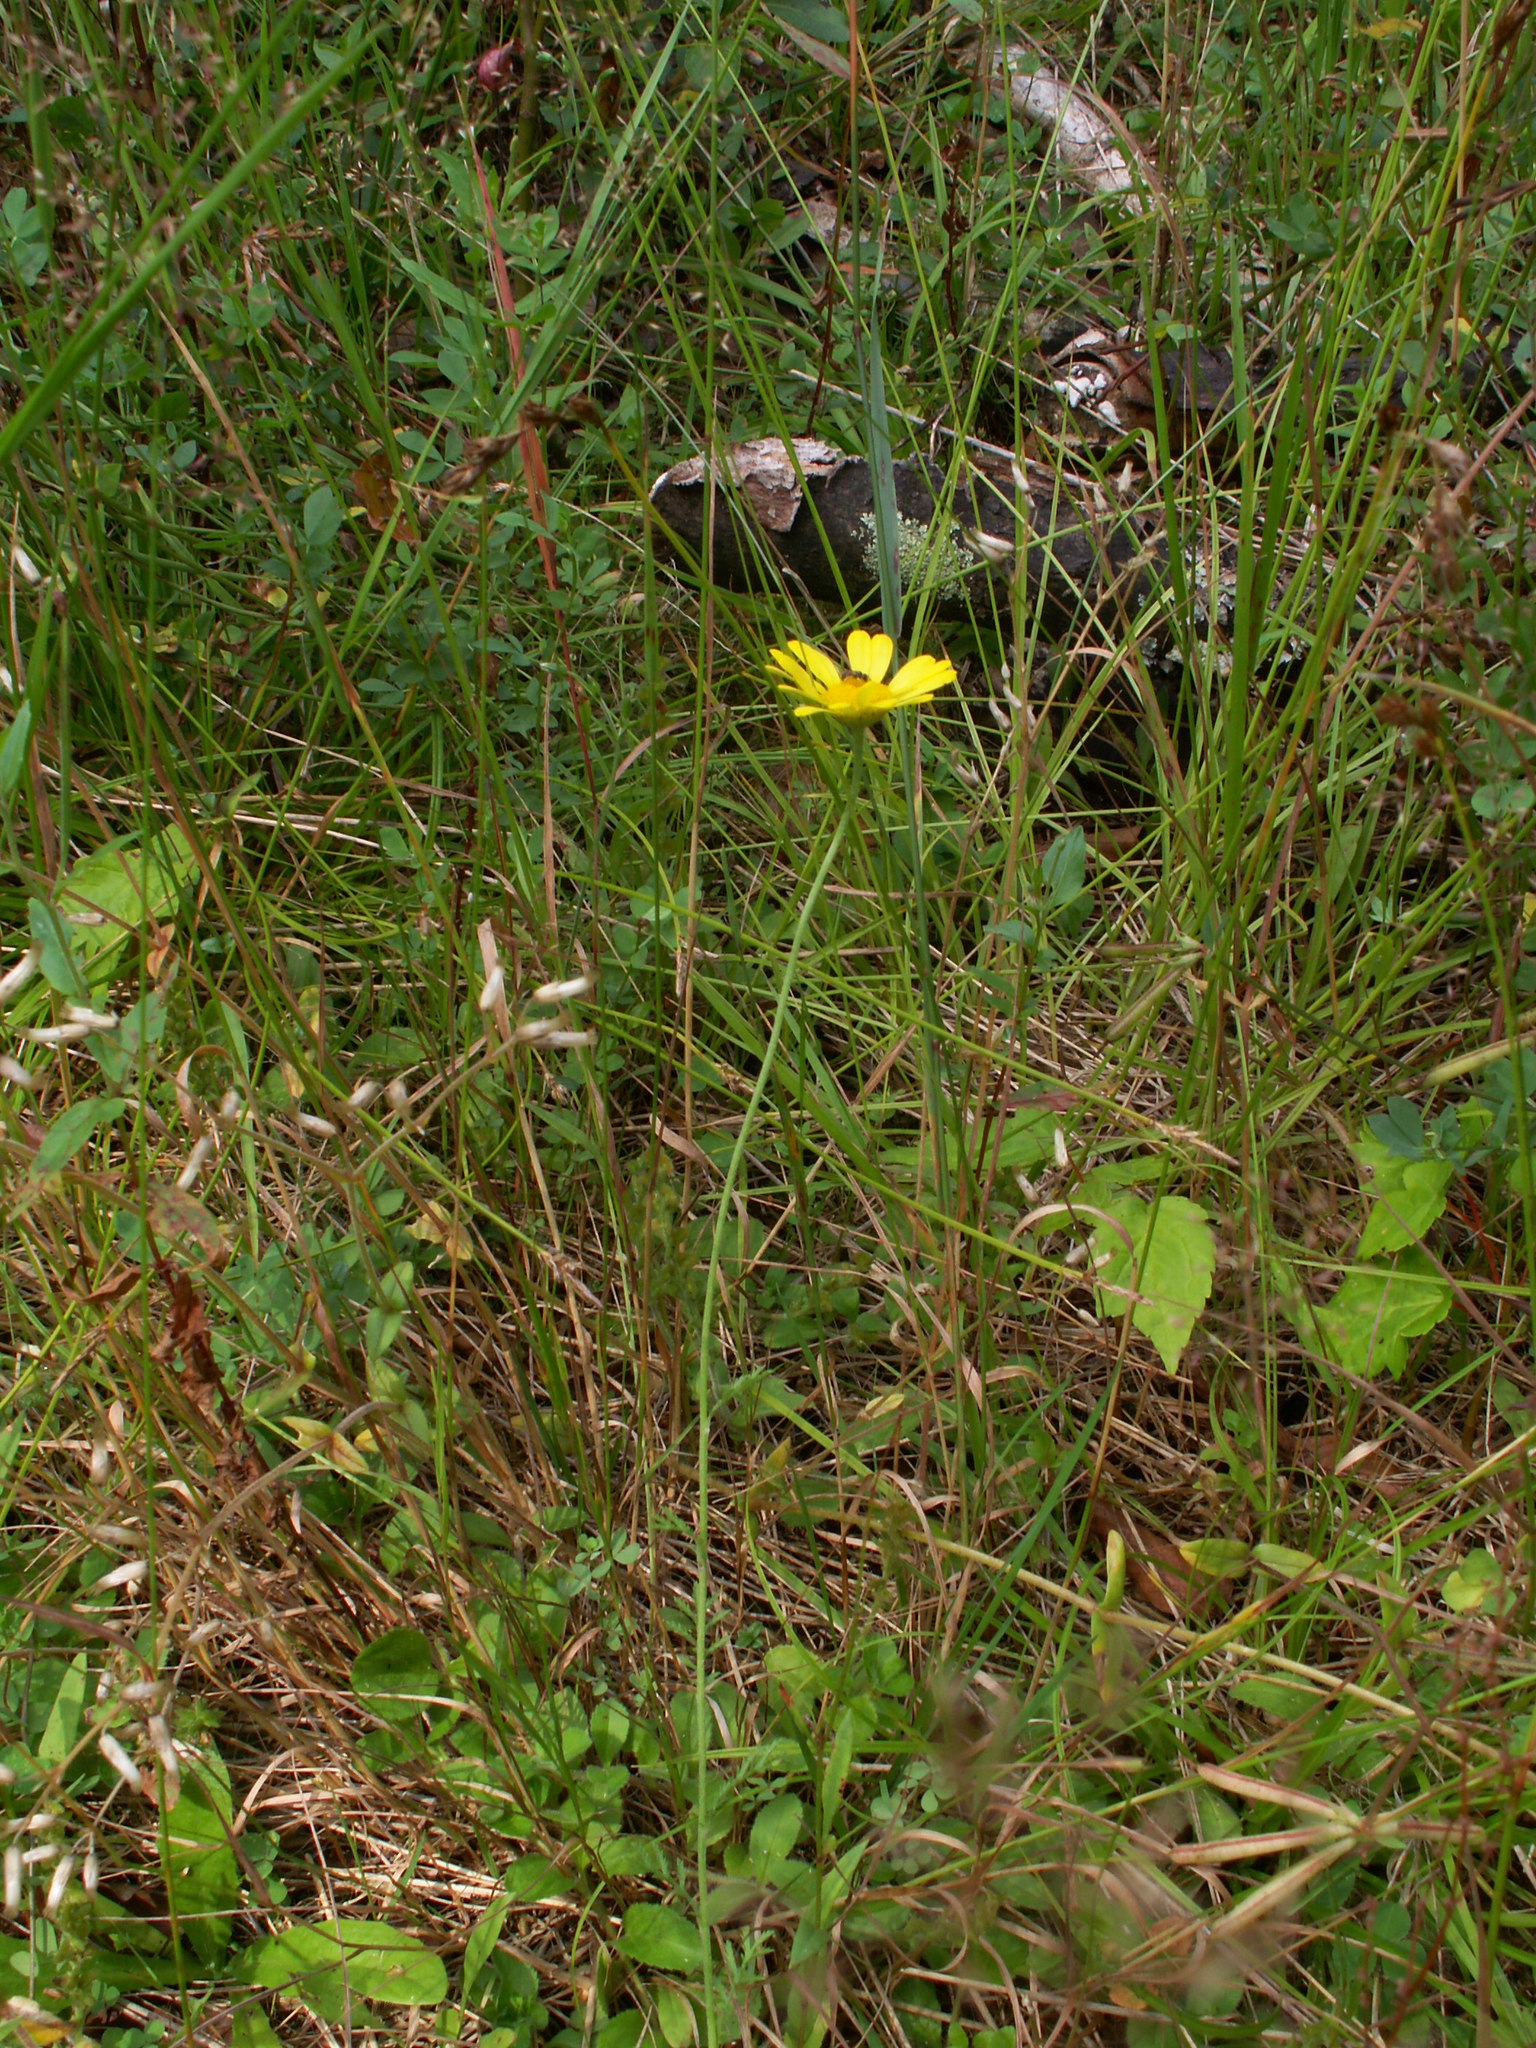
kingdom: Plantae
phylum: Tracheophyta
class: Magnoliopsida
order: Asterales
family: Asteraceae
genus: Cota
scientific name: Cota tinctoria
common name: Golden chamomile
